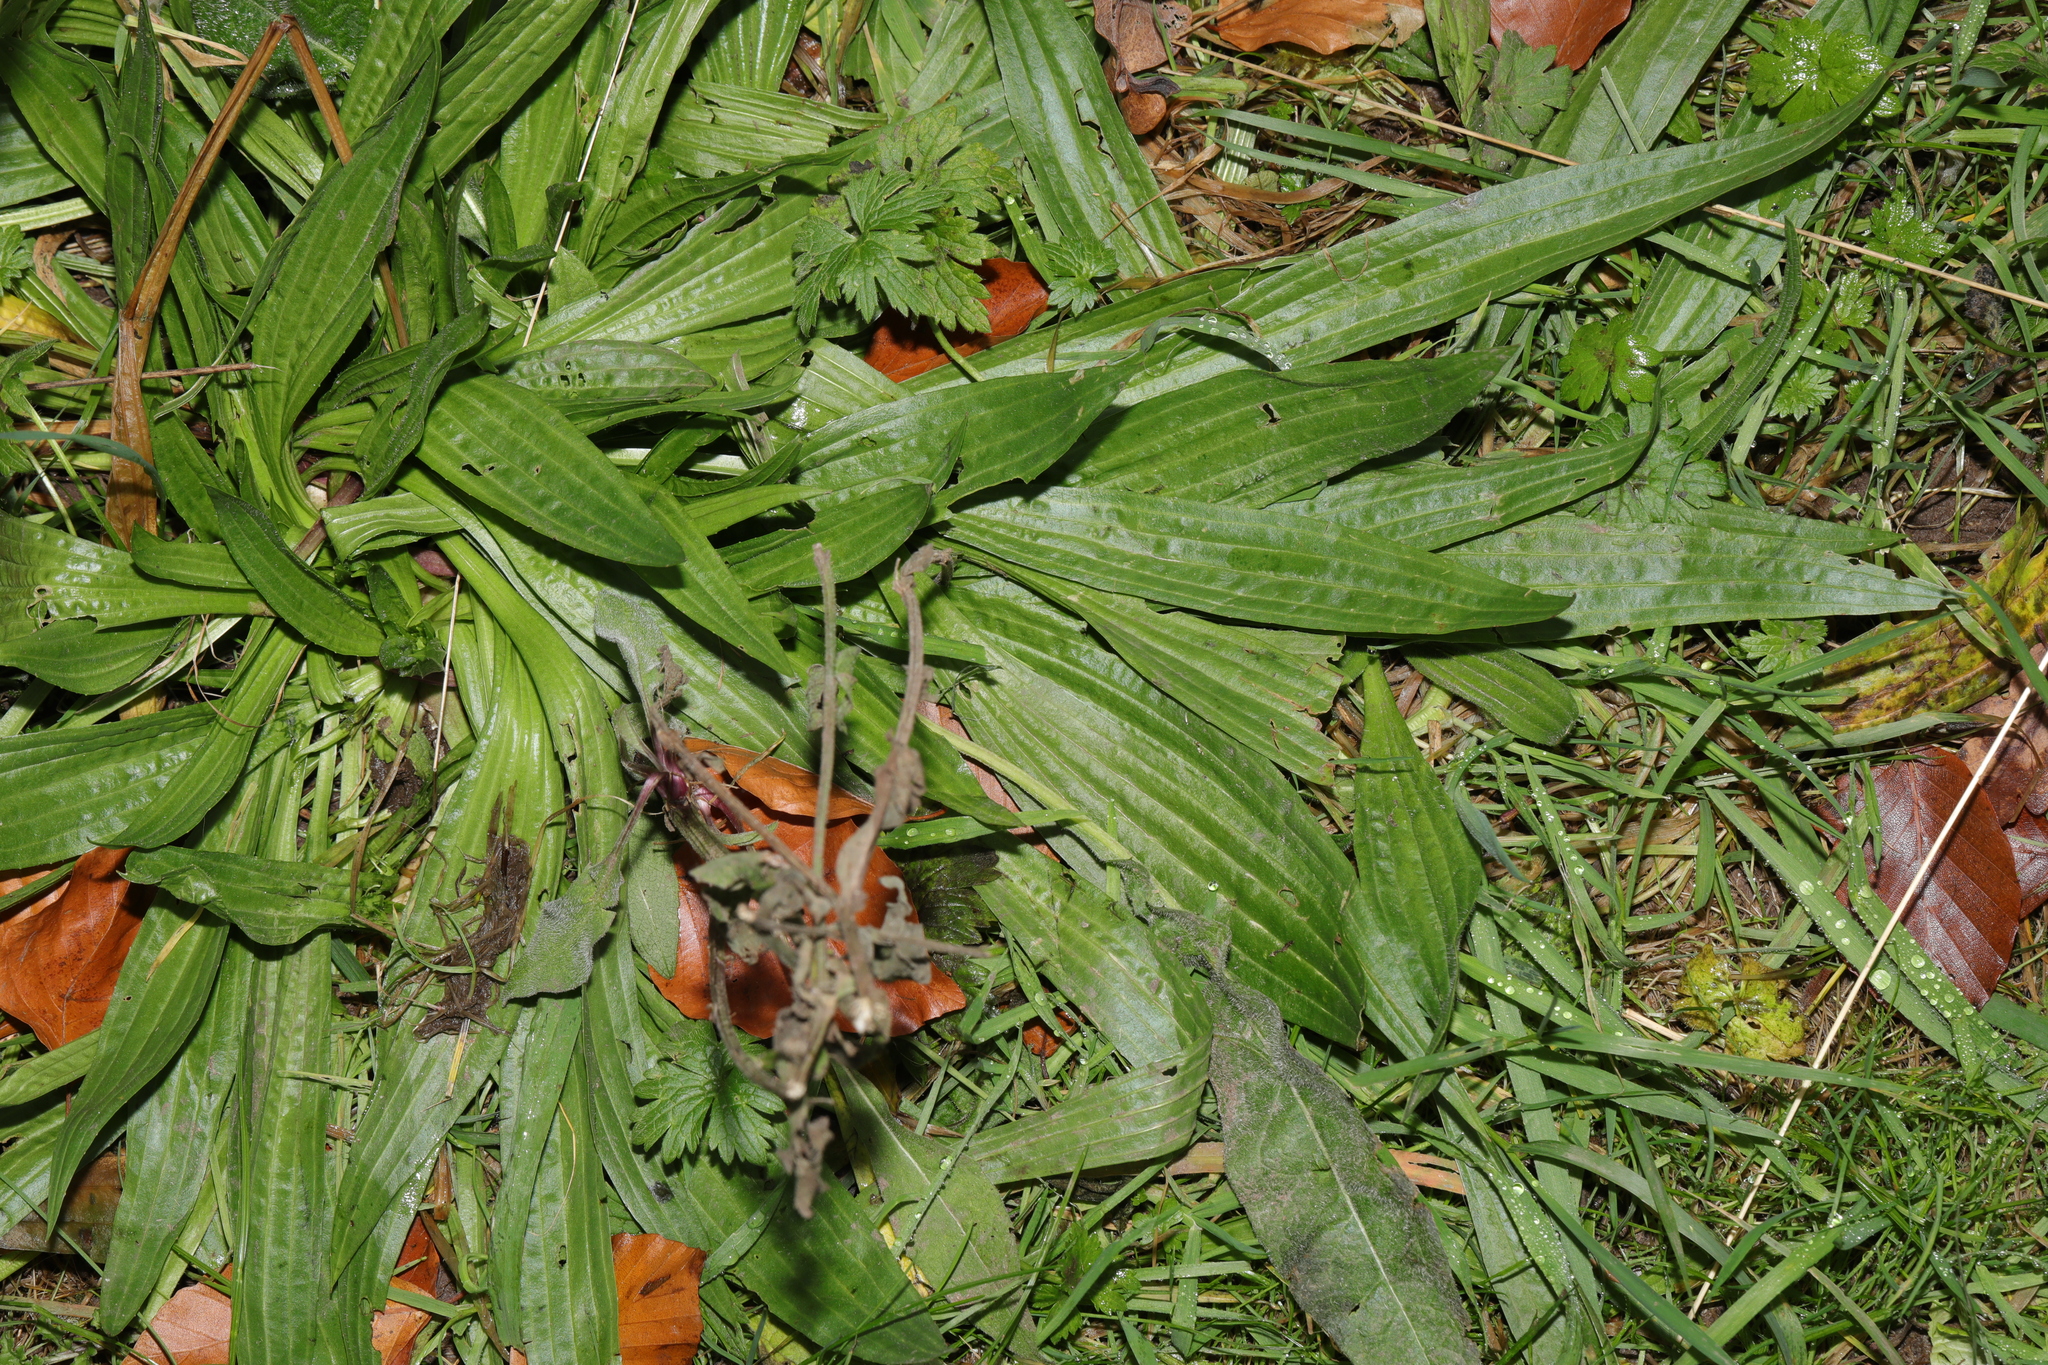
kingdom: Plantae
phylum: Tracheophyta
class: Magnoliopsida
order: Lamiales
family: Plantaginaceae
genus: Plantago
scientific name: Plantago lanceolata
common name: Ribwort plantain
